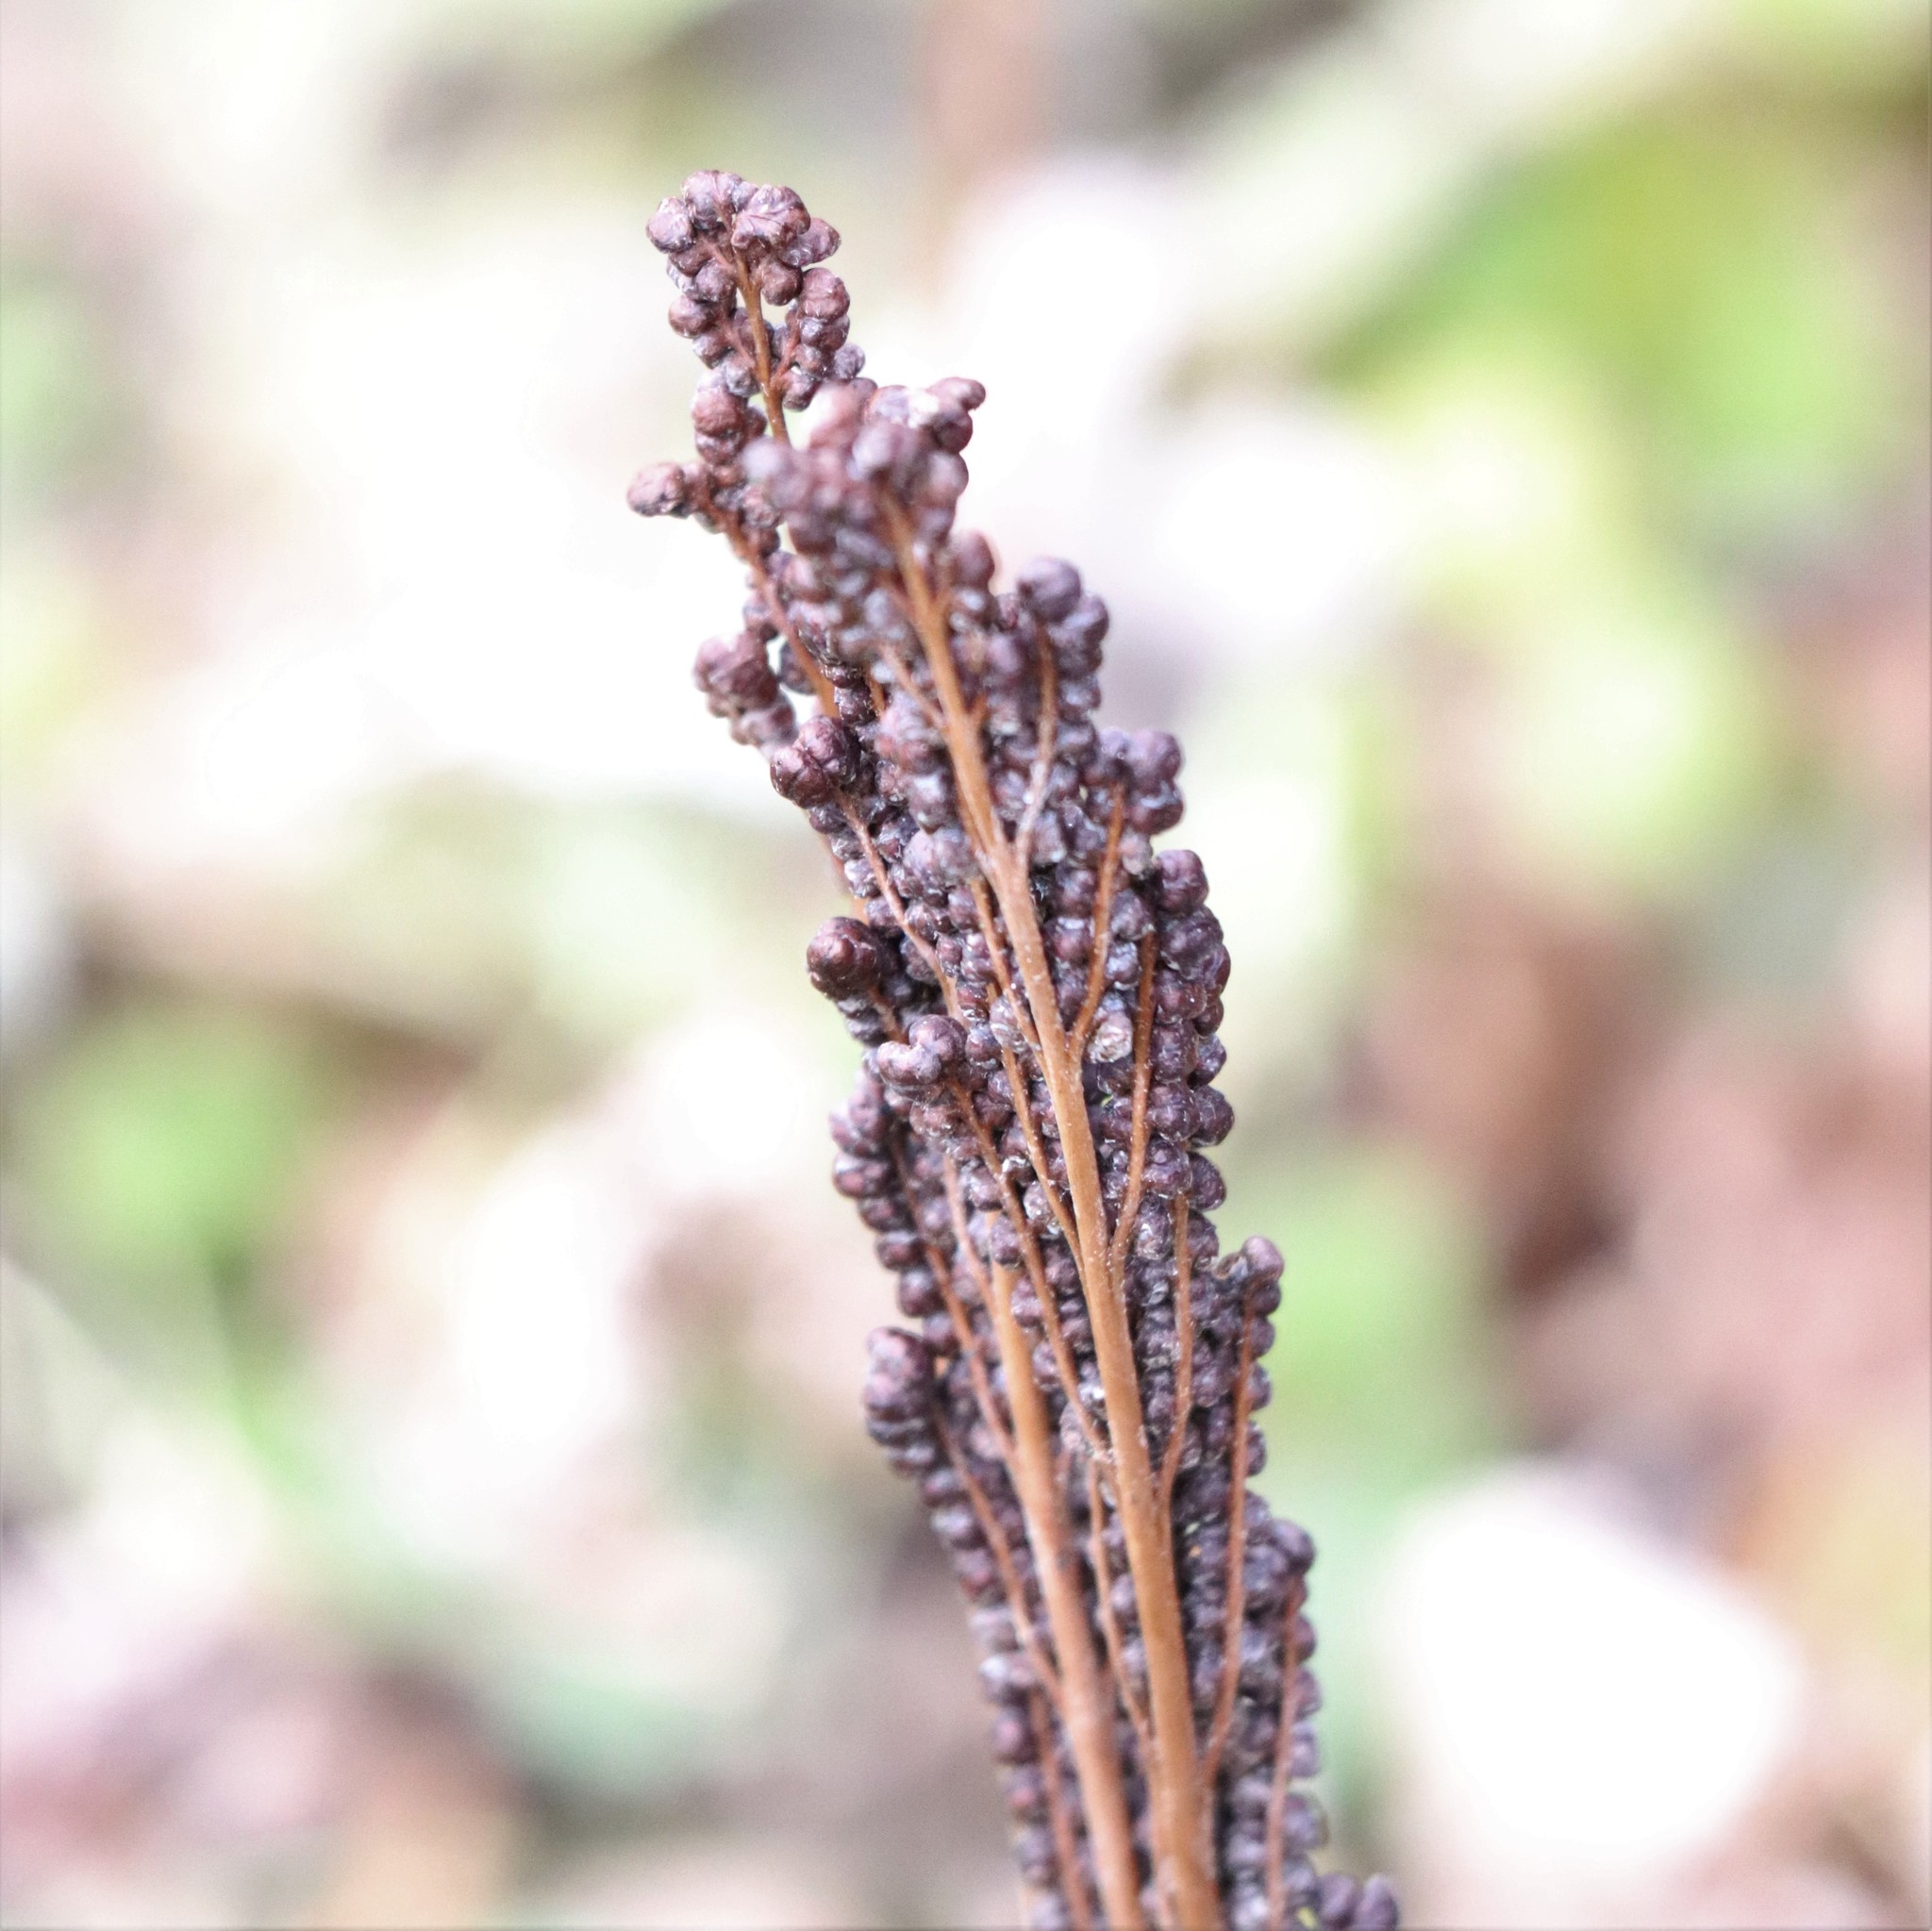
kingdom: Plantae
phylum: Tracheophyta
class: Polypodiopsida
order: Polypodiales
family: Onocleaceae
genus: Onoclea
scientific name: Onoclea sensibilis
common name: Sensitive fern
